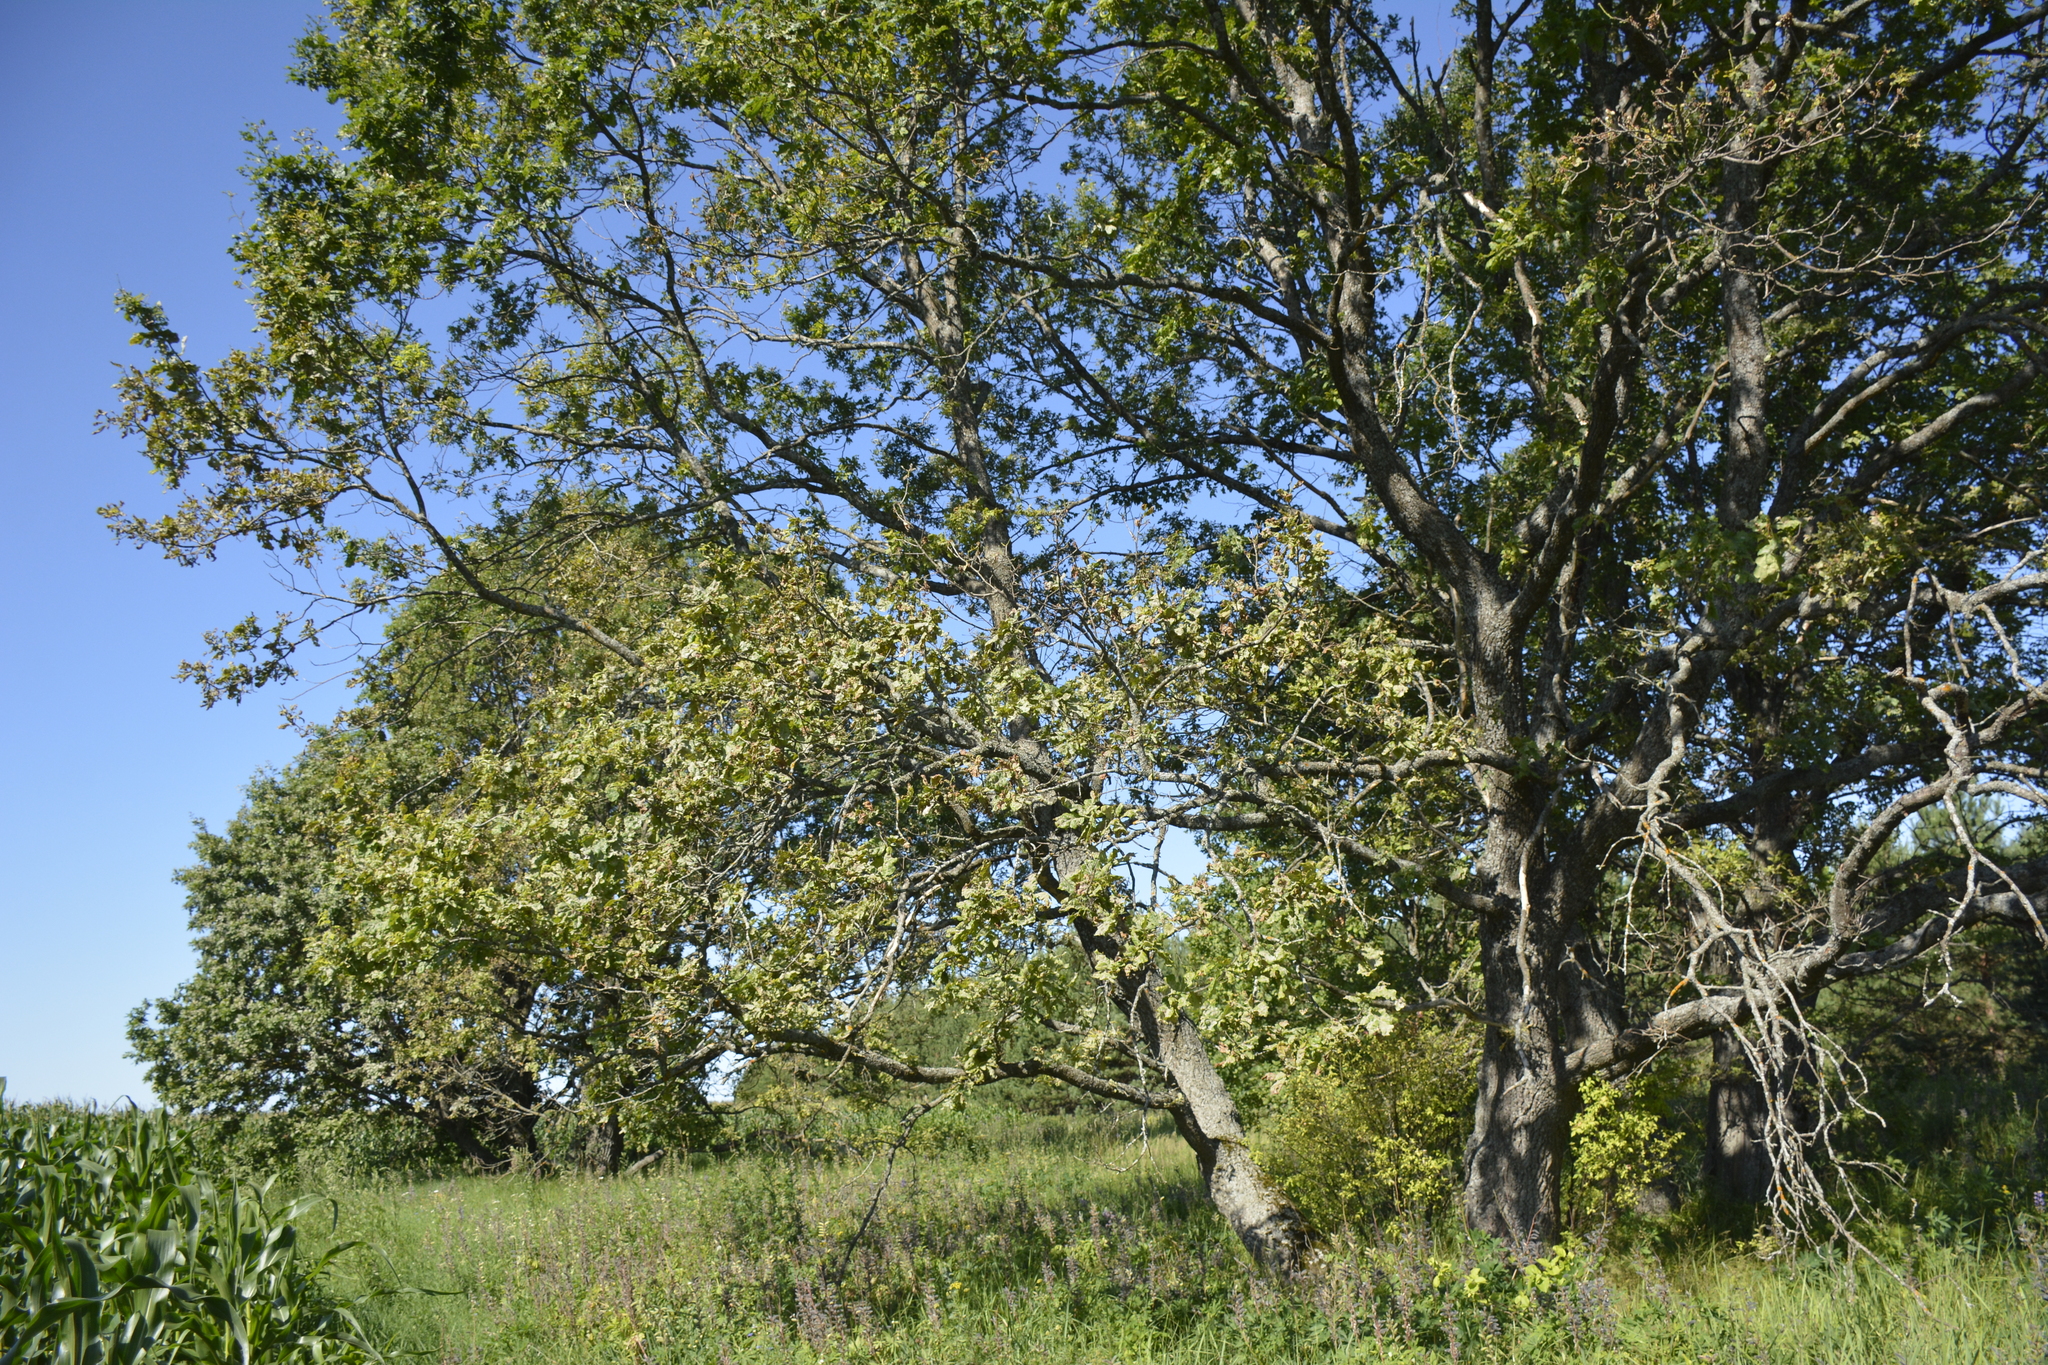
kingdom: Plantae
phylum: Tracheophyta
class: Magnoliopsida
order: Fagales
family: Fagaceae
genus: Quercus
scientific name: Quercus robur
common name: Pedunculate oak
